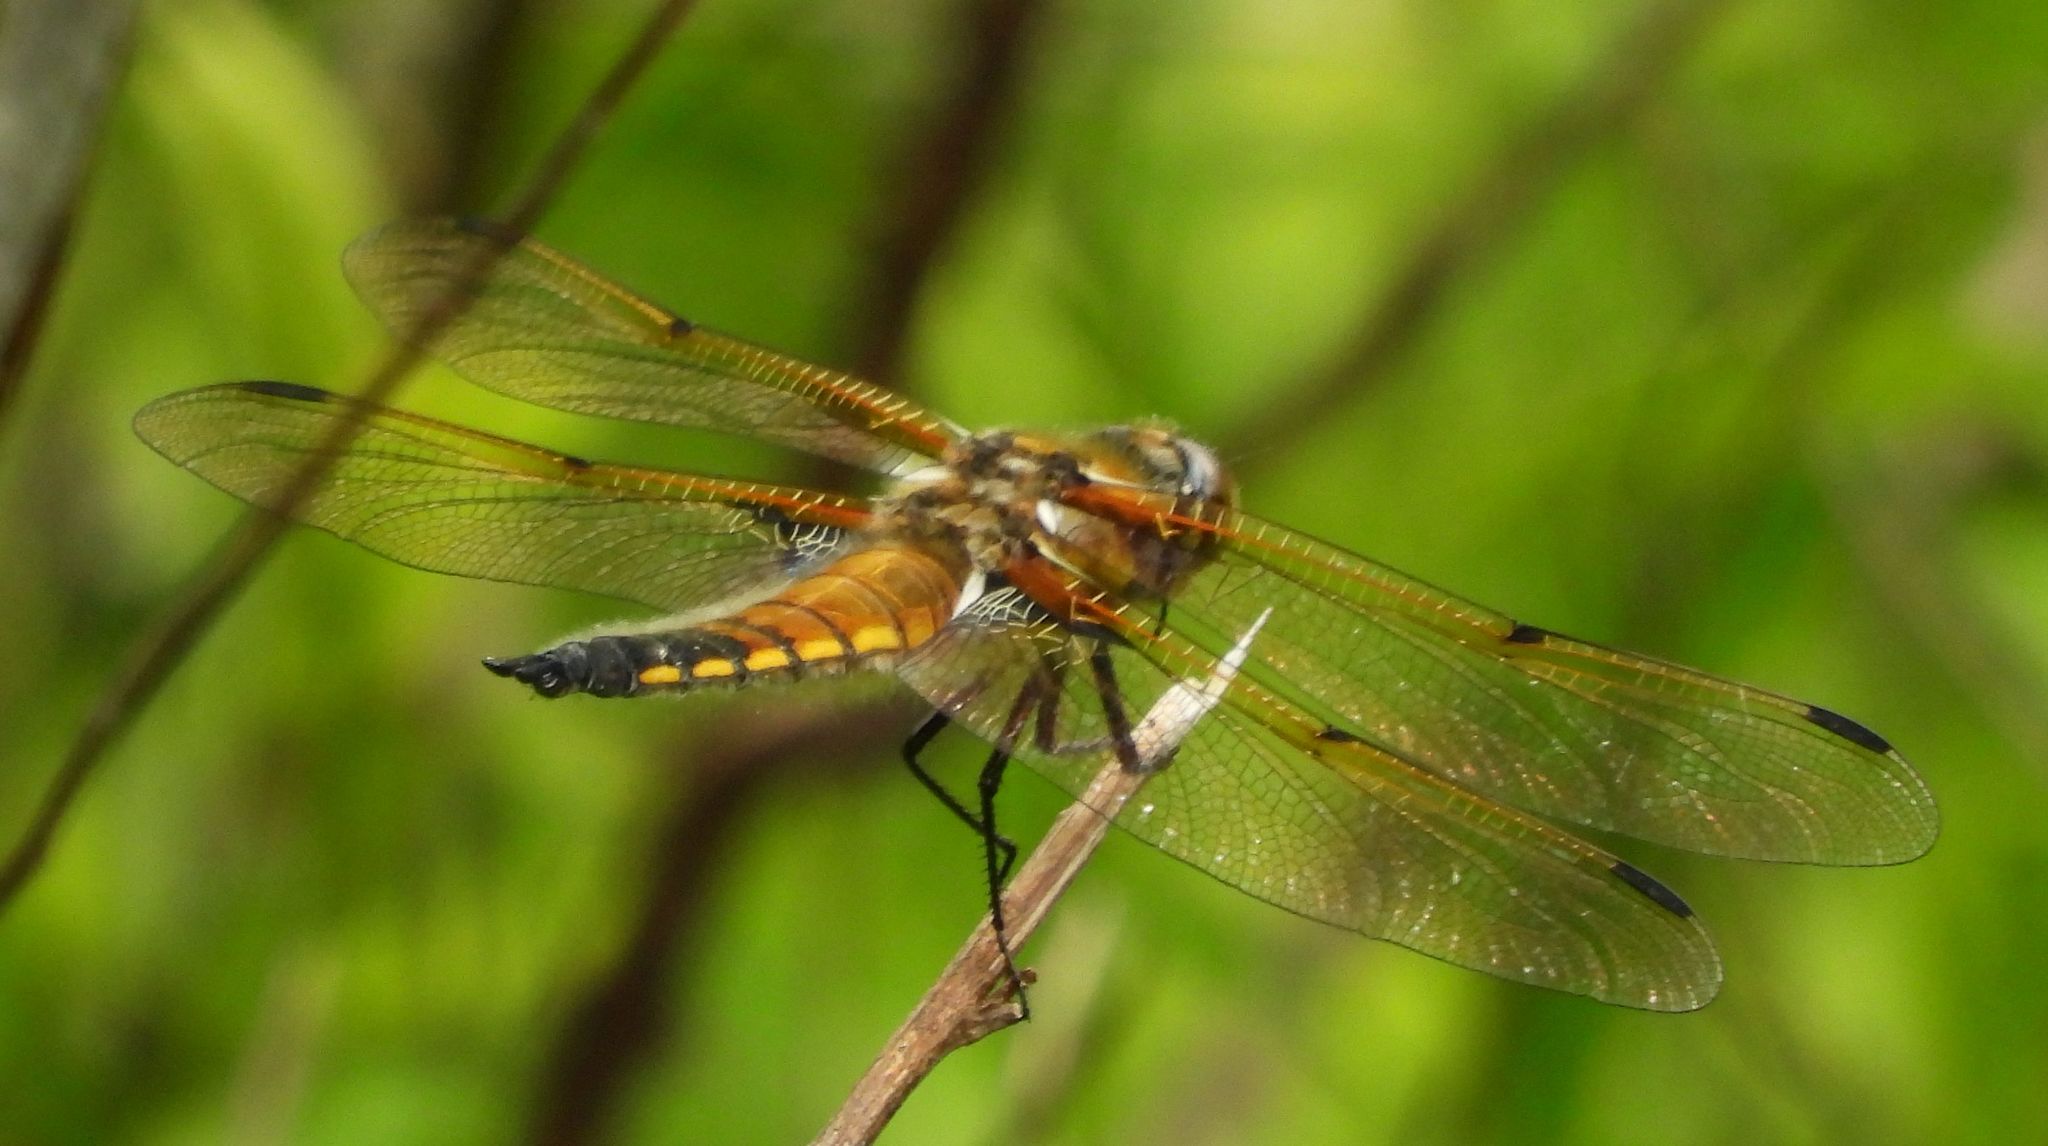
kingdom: Animalia
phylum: Arthropoda
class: Insecta
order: Odonata
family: Libellulidae
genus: Libellula
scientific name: Libellula quadrimaculata
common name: Four-spotted chaser
